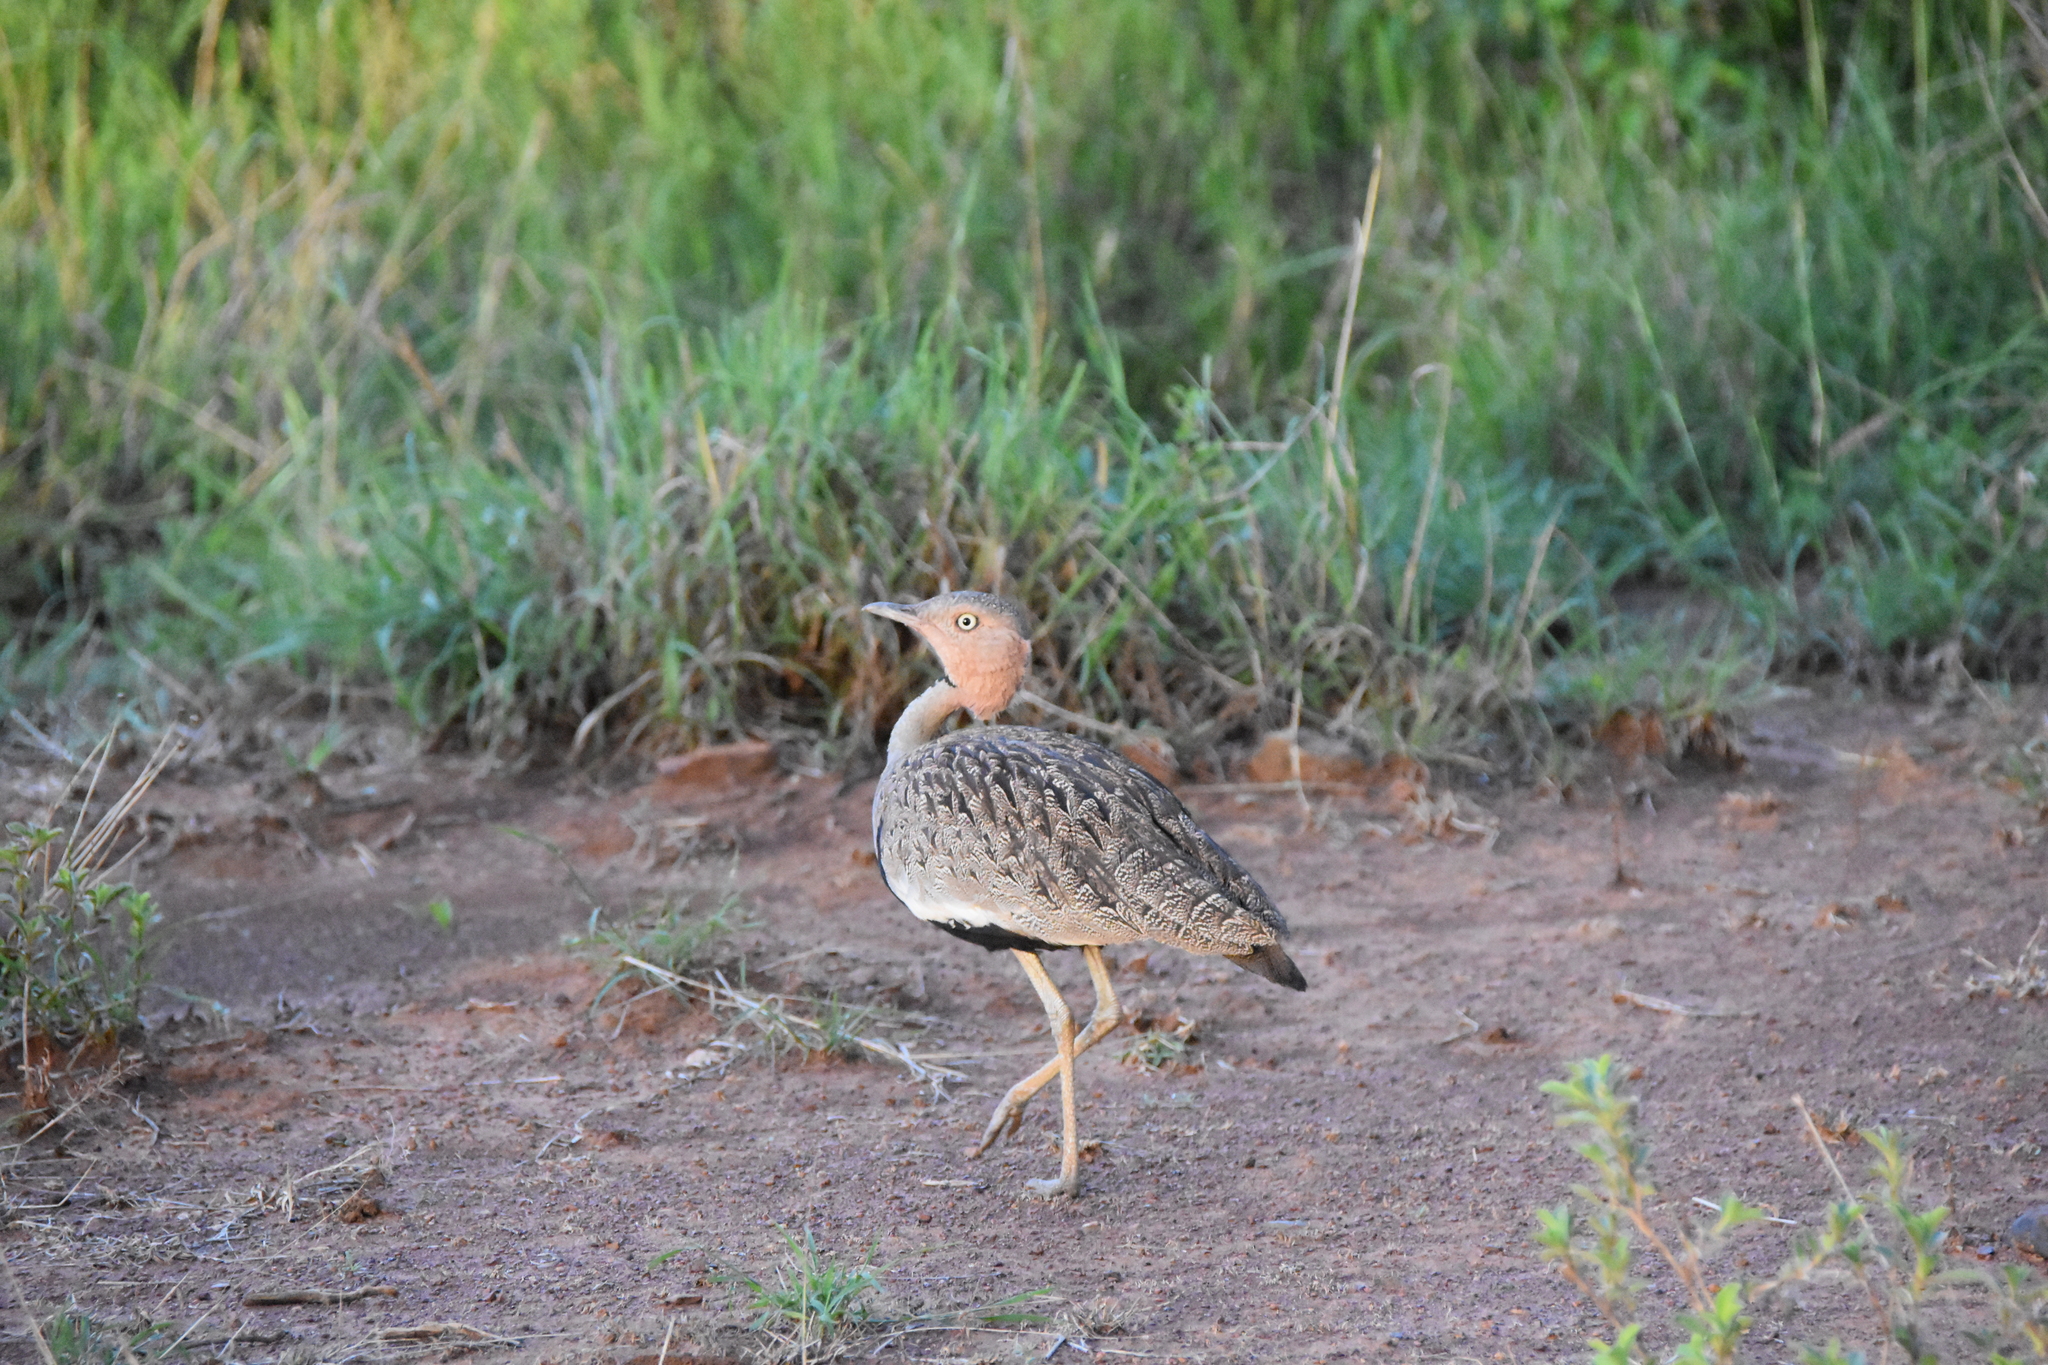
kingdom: Animalia
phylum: Chordata
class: Aves
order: Otidiformes
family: Otididae
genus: Lophotis
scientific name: Lophotis gindiana
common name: Buff-crested bustard
